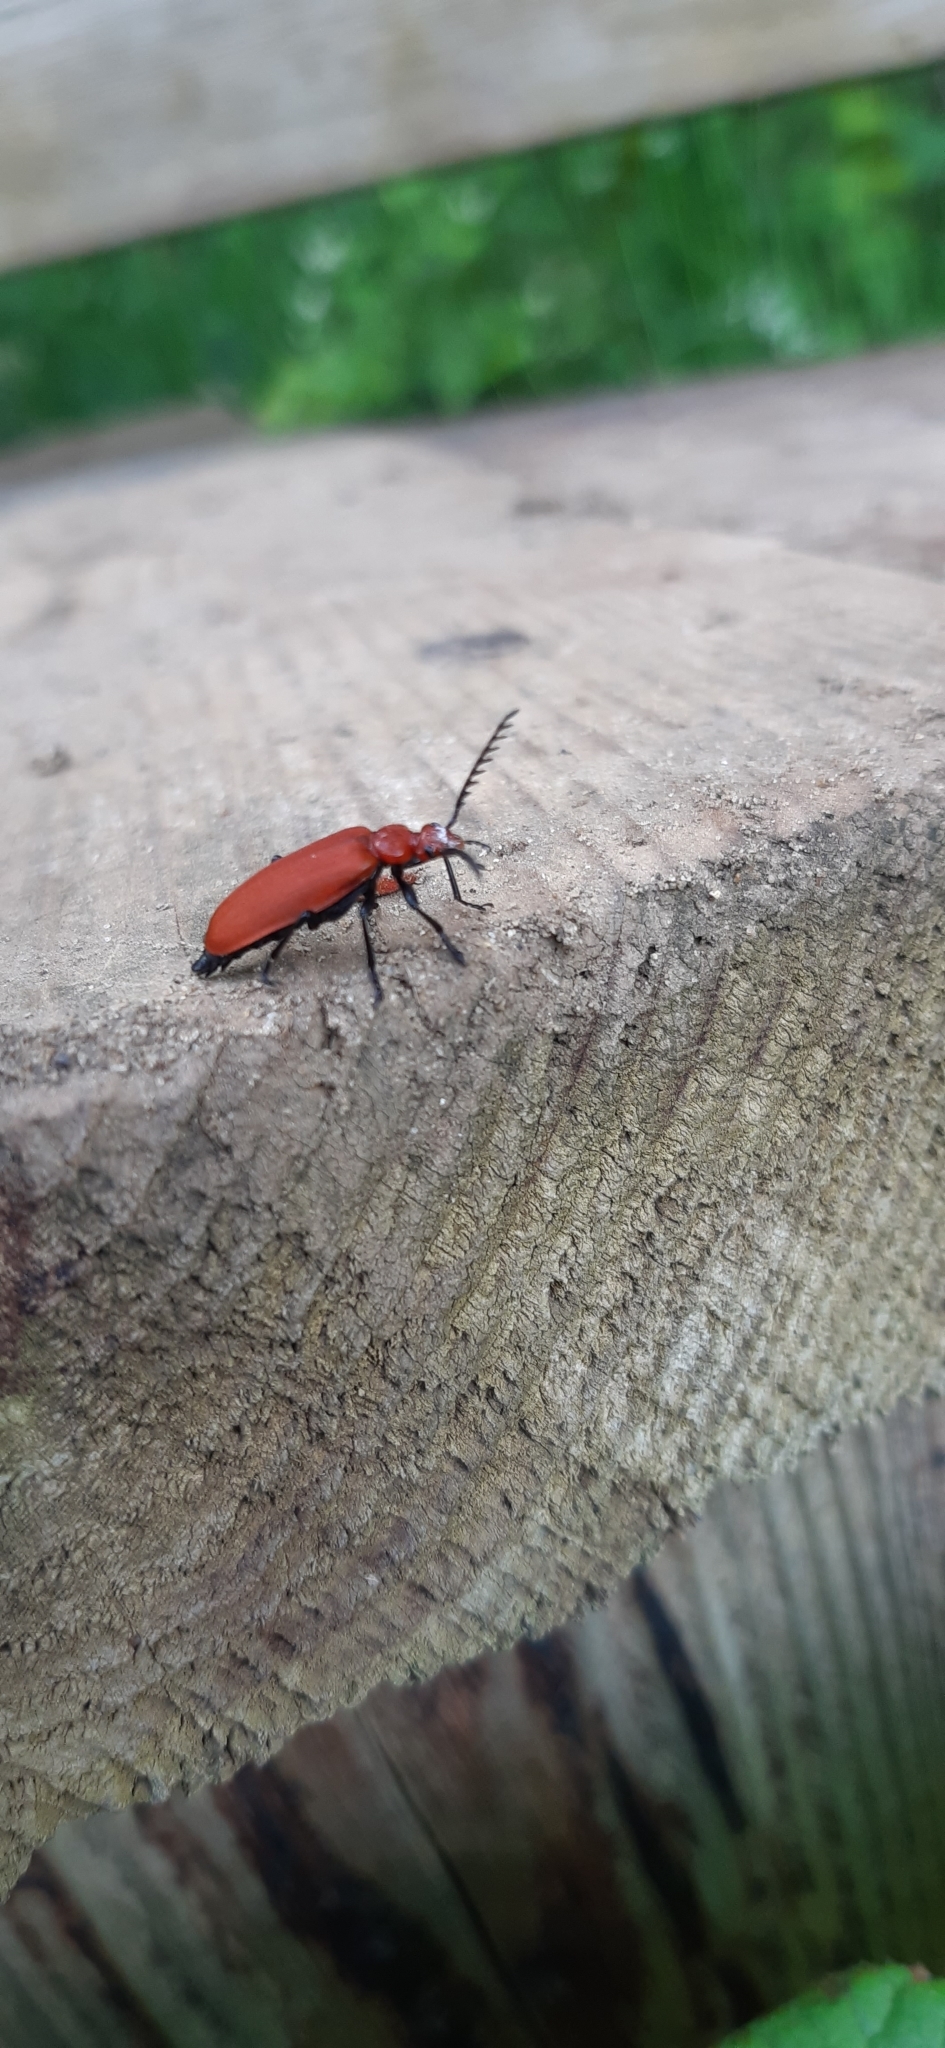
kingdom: Animalia
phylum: Arthropoda
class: Insecta
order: Coleoptera
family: Pyrochroidae
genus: Pyrochroa
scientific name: Pyrochroa serraticornis
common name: Red-headed cardinal beetle
